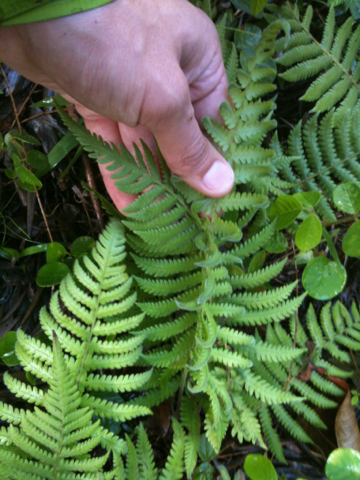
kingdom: Plantae
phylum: Tracheophyta
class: Polypodiopsida
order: Polypodiales
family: Thelypteridaceae
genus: Christella
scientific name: Christella parasitica
